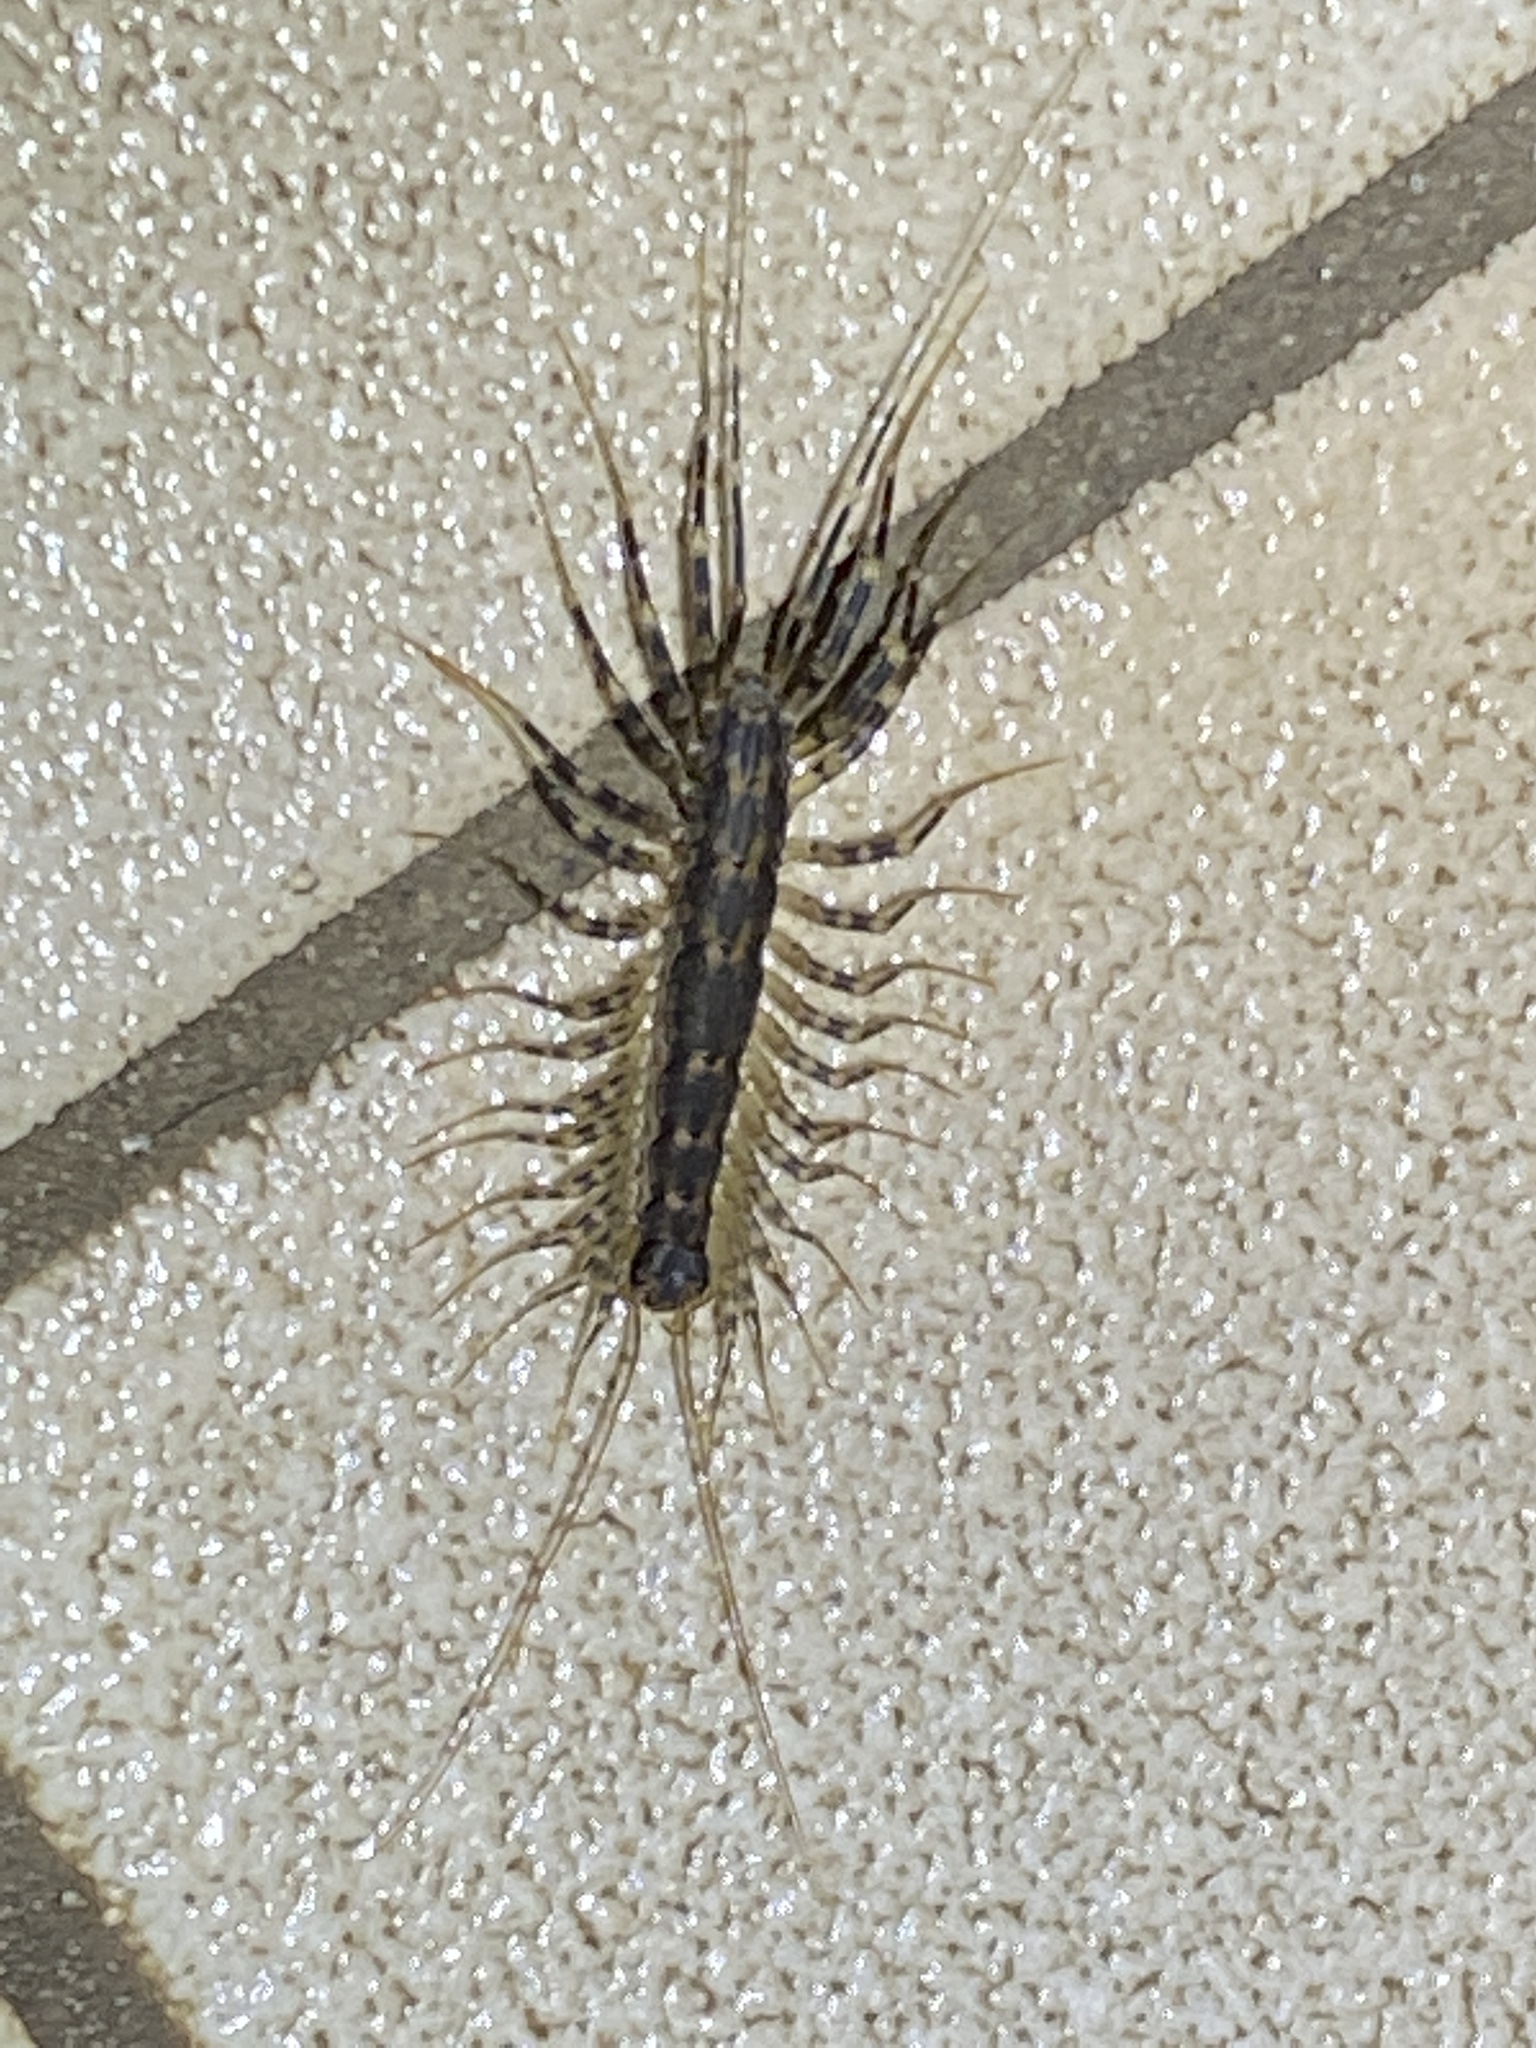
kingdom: Animalia
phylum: Arthropoda
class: Chilopoda
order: Scutigeromorpha
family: Scutigeridae
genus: Allothereua
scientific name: Allothereua maculata
